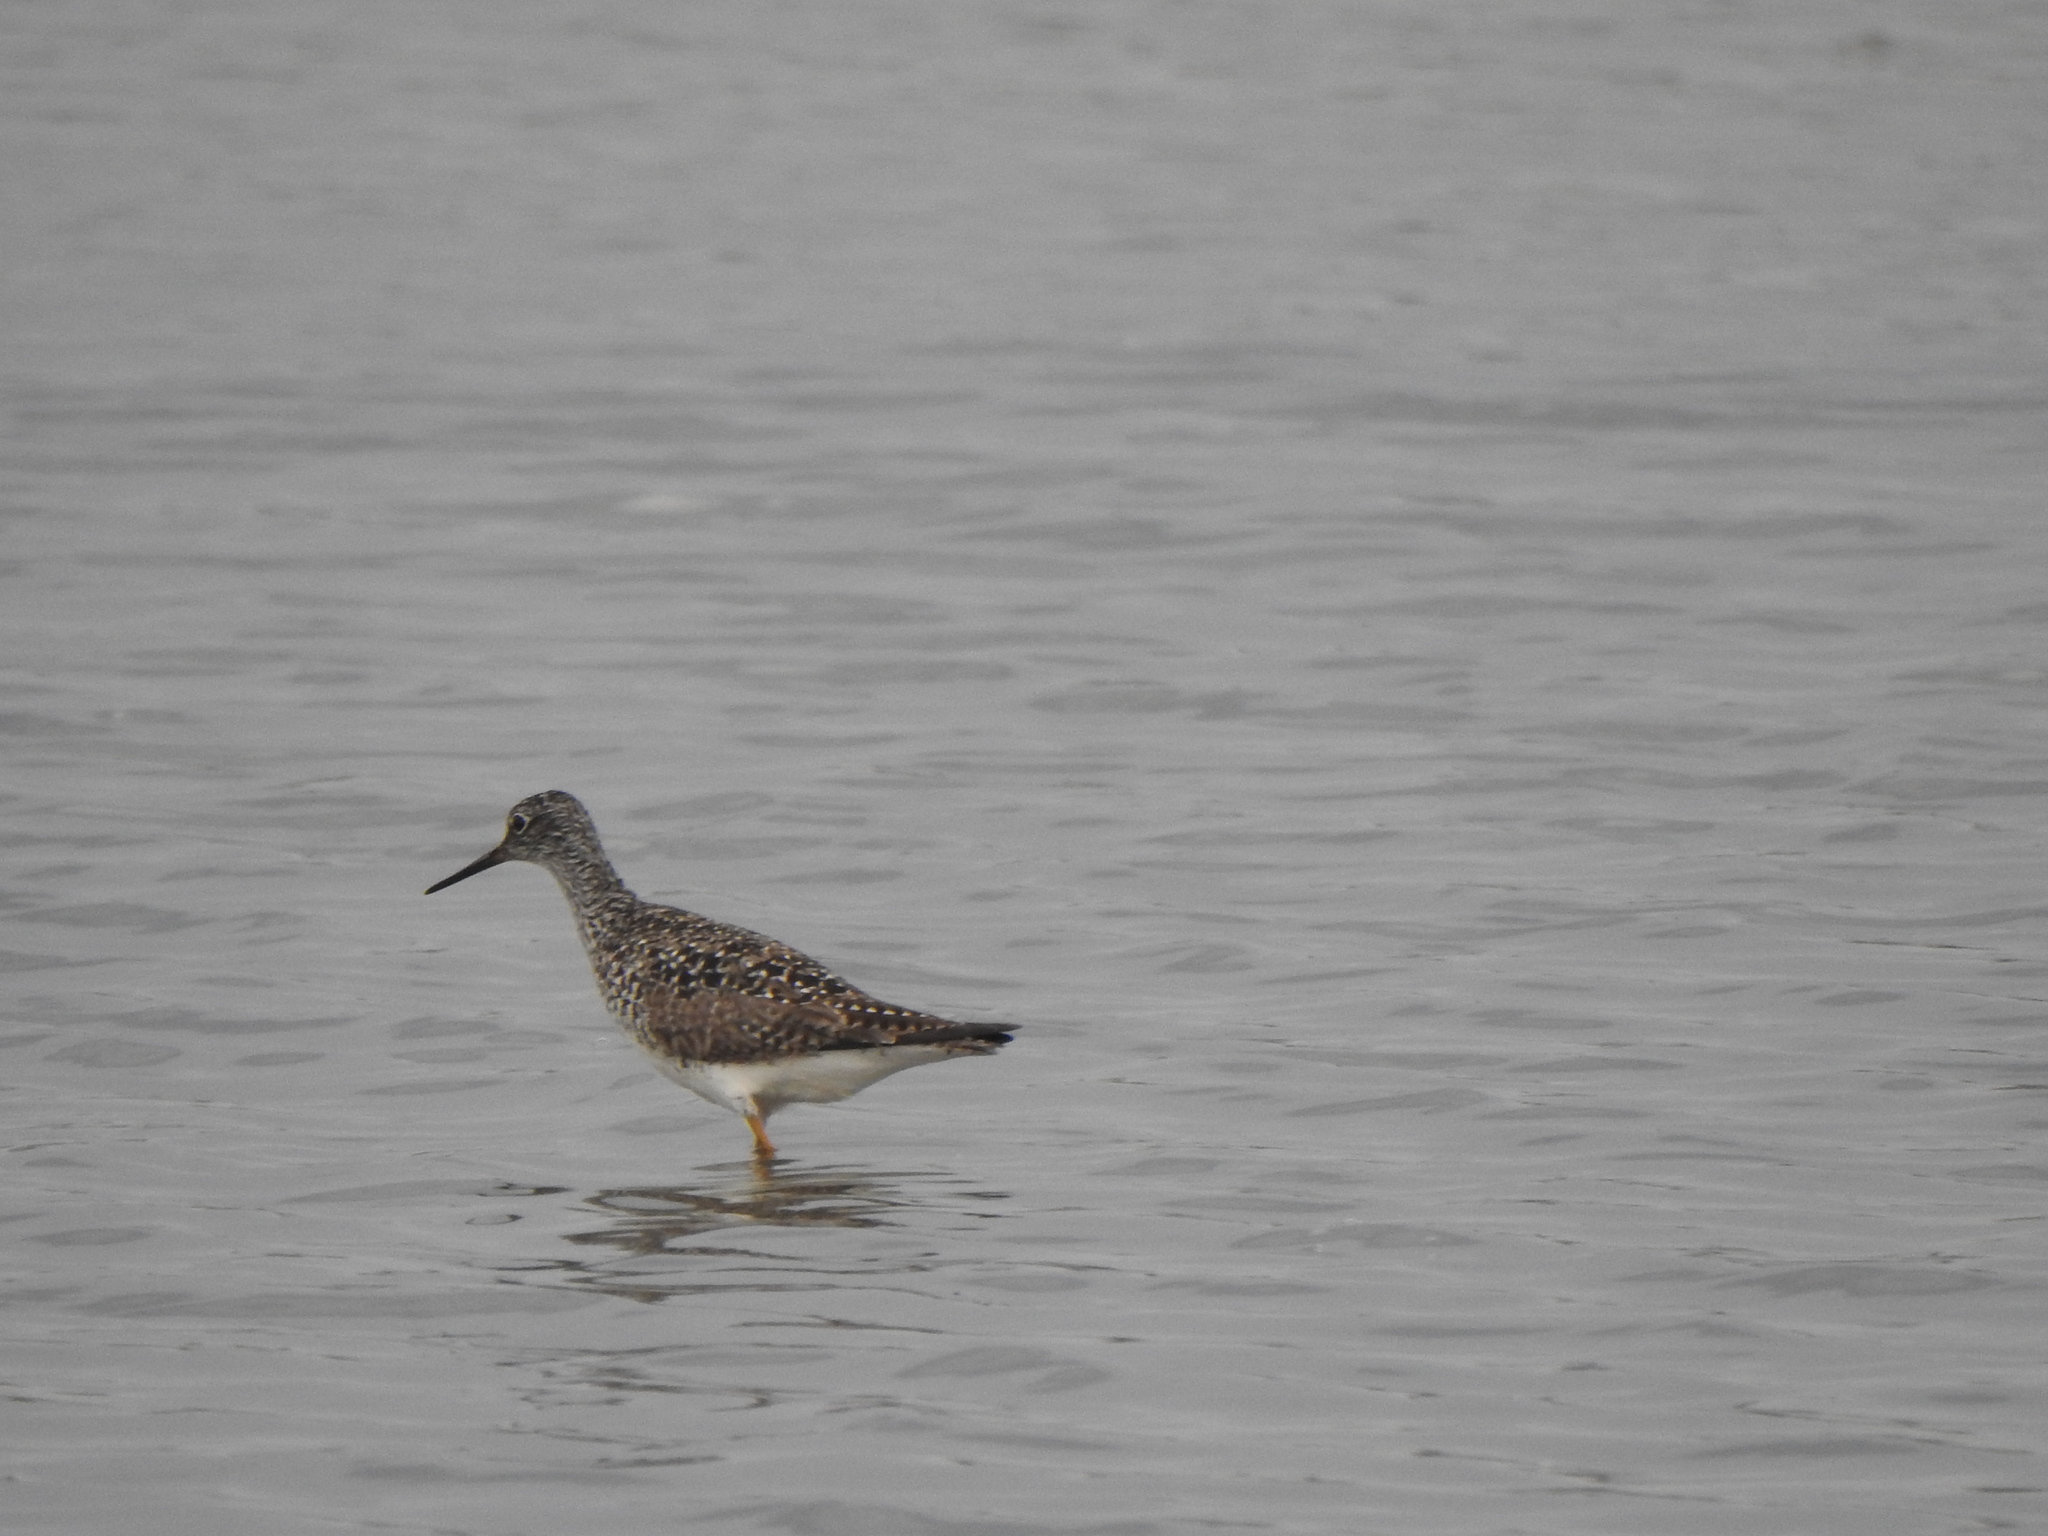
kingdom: Animalia
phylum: Chordata
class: Aves
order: Charadriiformes
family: Scolopacidae
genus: Tringa
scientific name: Tringa flavipes
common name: Lesser yellowlegs
